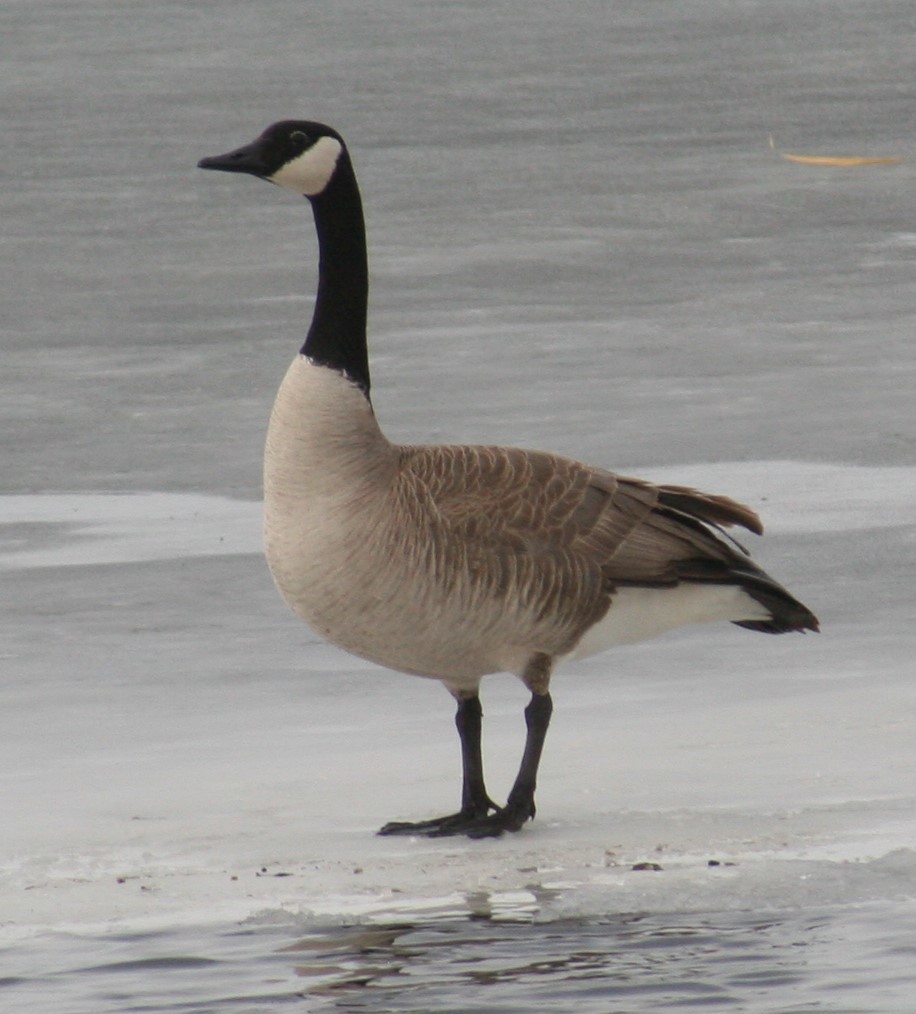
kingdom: Animalia
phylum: Chordata
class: Aves
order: Anseriformes
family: Anatidae
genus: Branta
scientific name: Branta canadensis
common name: Canada goose
